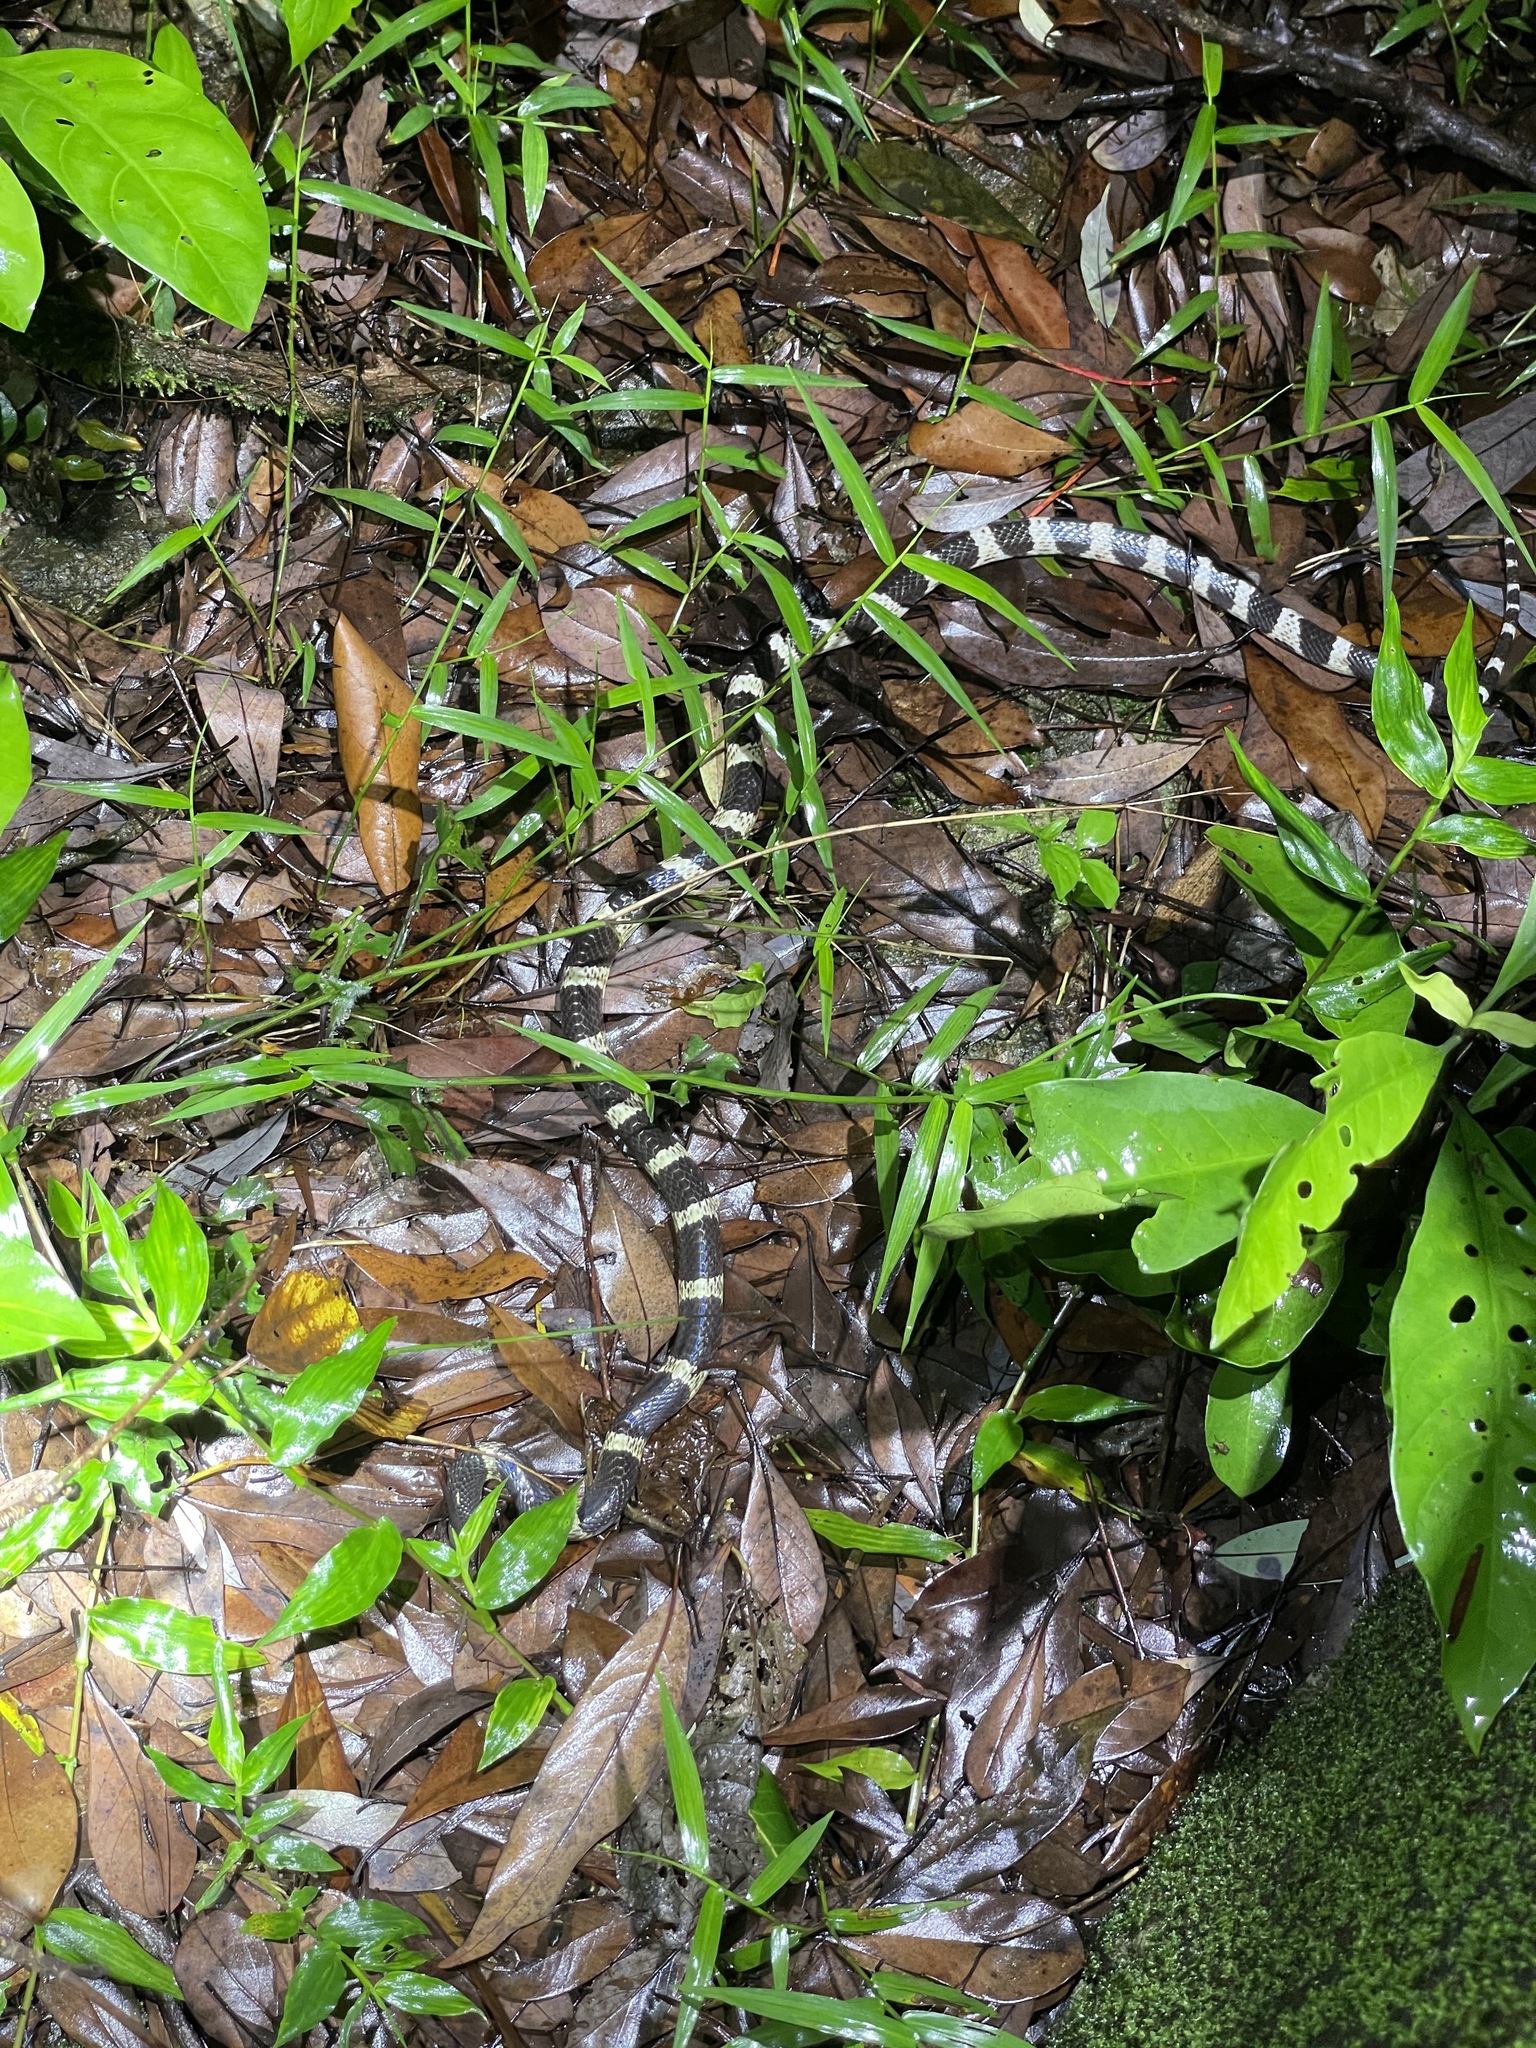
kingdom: Animalia
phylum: Chordata
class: Squamata
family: Elapidae
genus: Bungarus
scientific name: Bungarus multicinctus
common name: Many-banded krait
